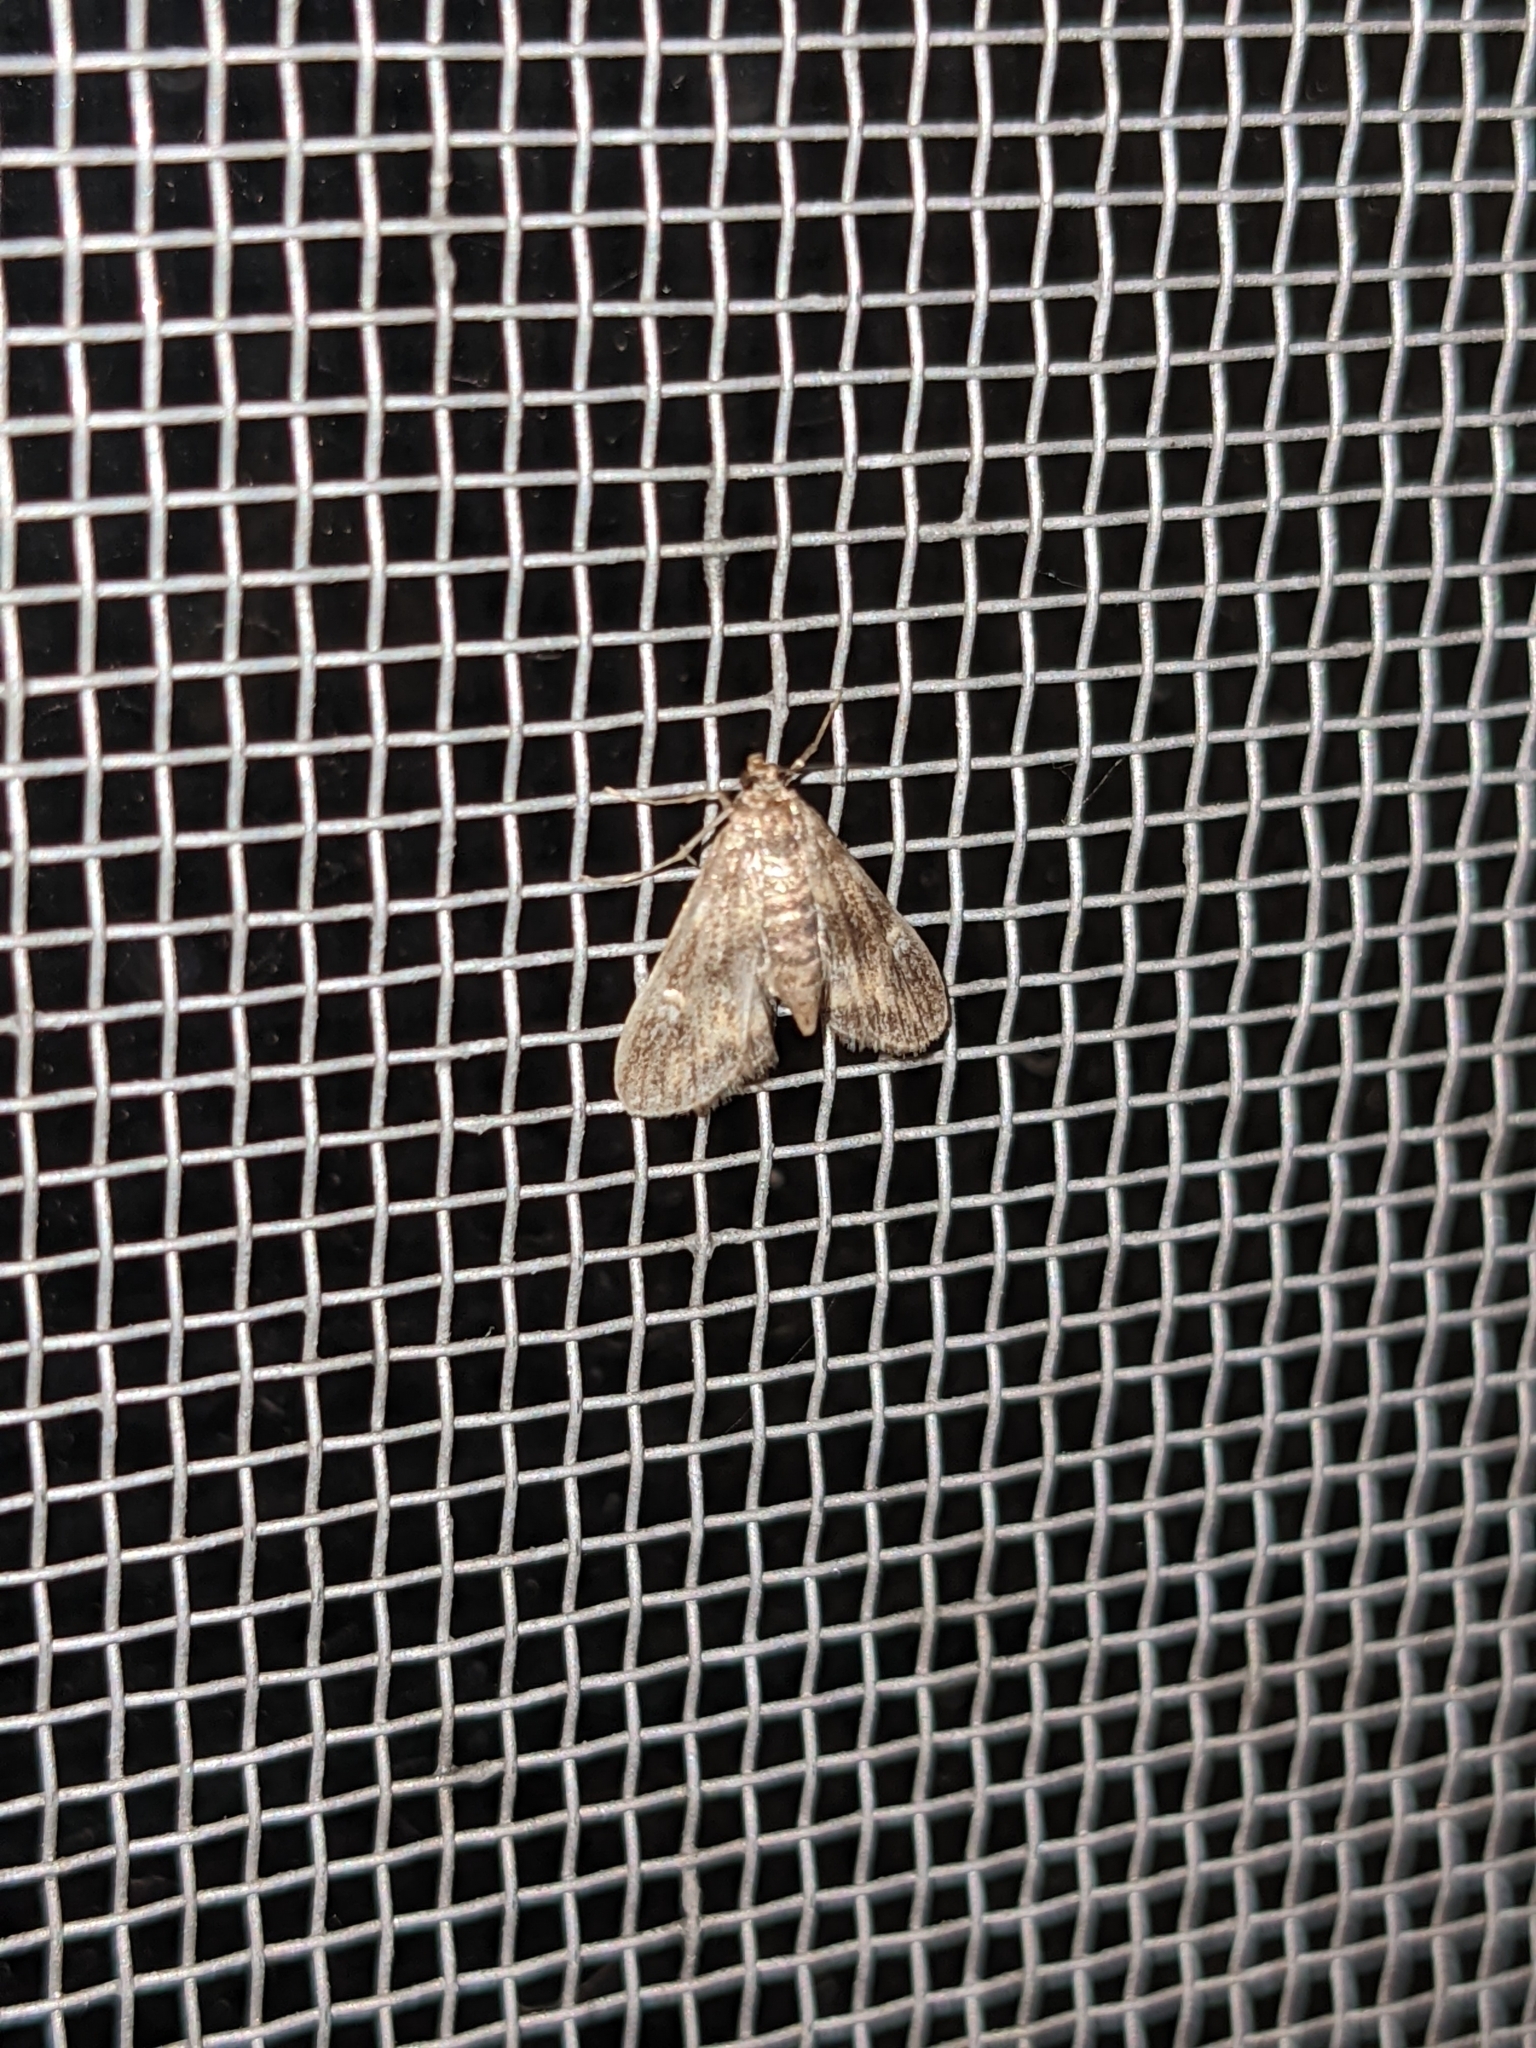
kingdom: Animalia
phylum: Arthropoda
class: Insecta
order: Lepidoptera
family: Crambidae
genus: Elophila
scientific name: Elophila obliteralis
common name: Waterlily leafcutter moth
